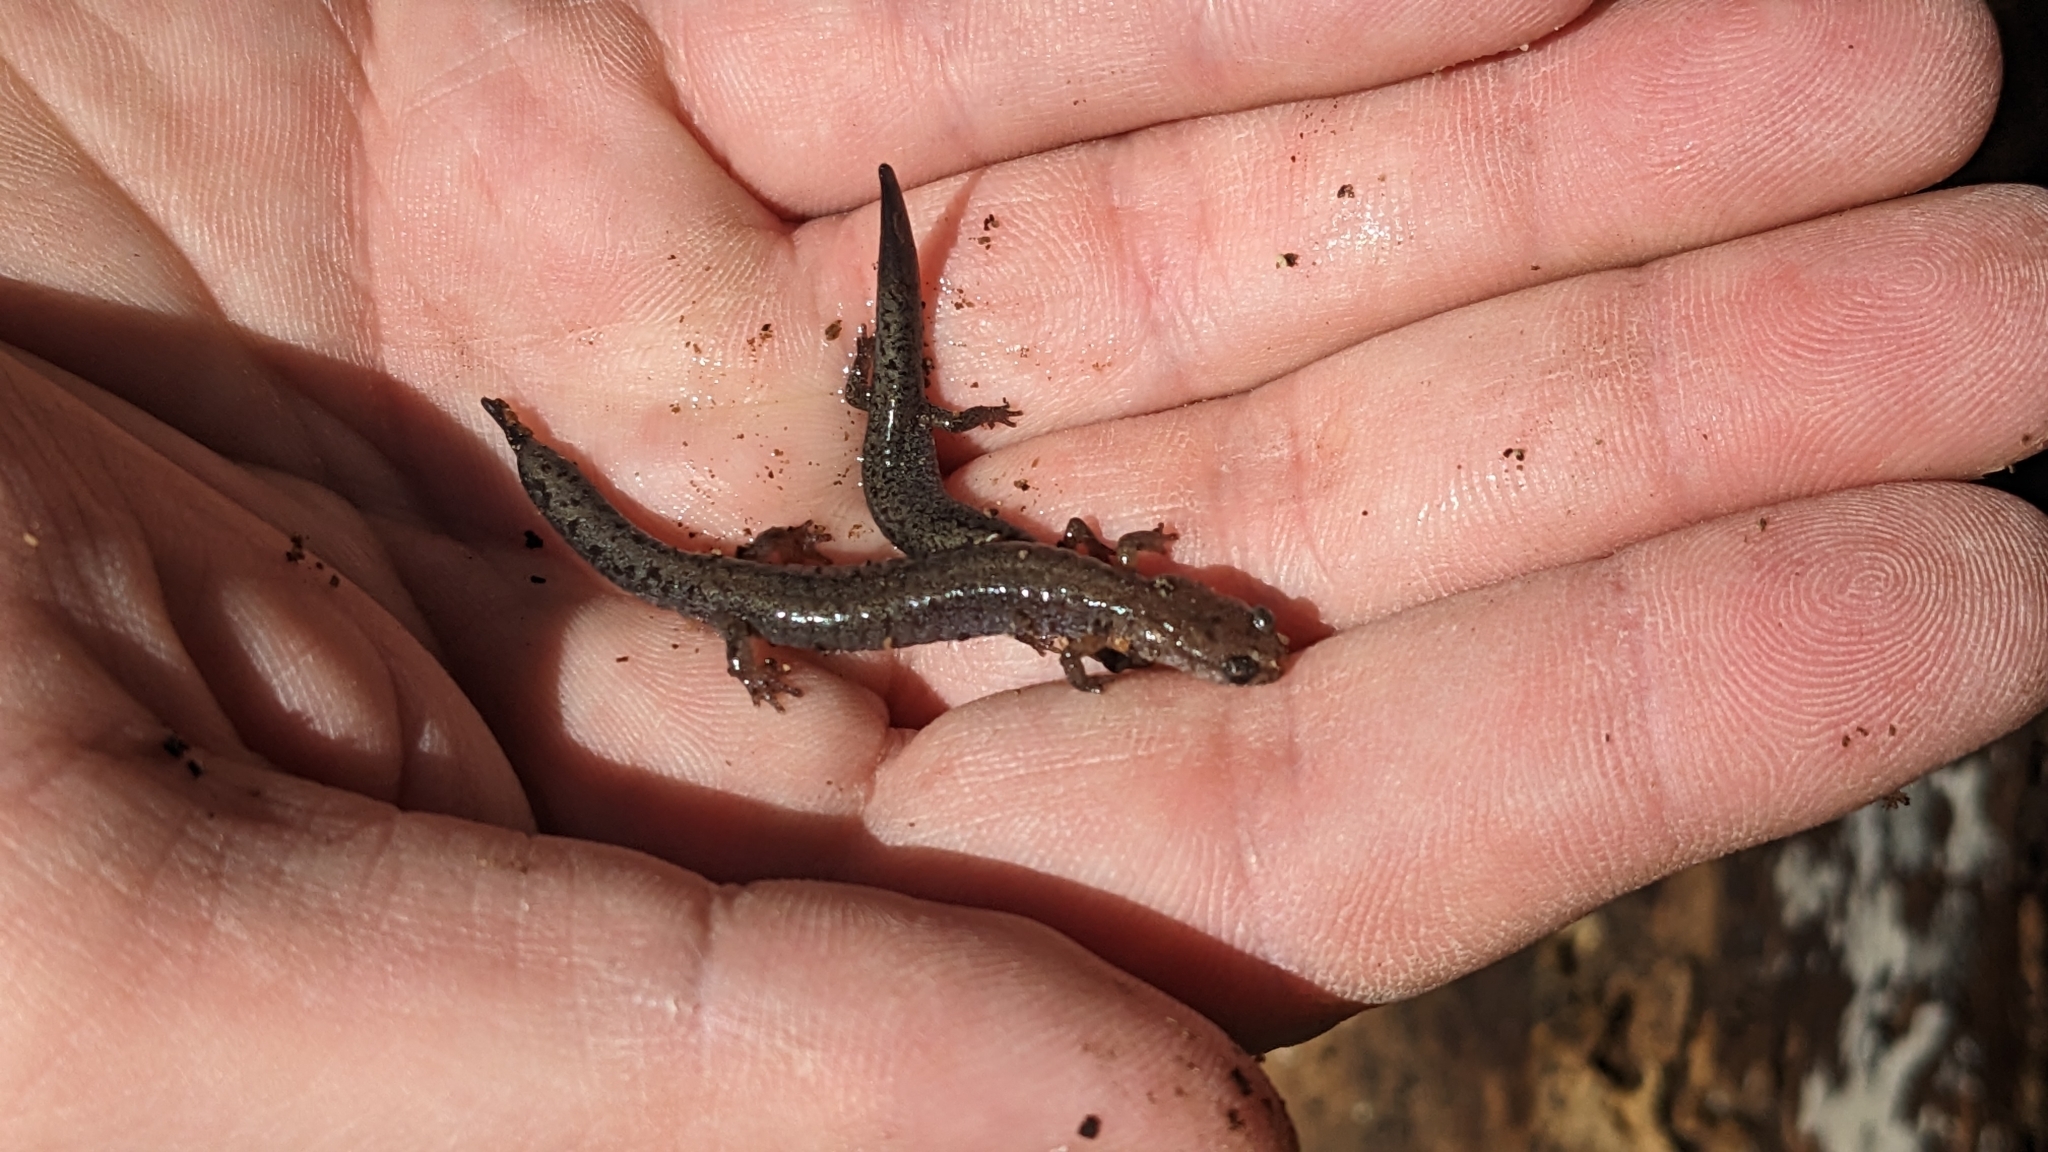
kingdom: Animalia
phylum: Chordata
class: Amphibia
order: Caudata
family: Plethodontidae
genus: Plethodon
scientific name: Plethodon dorsalis
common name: Northern zigzag salamander
